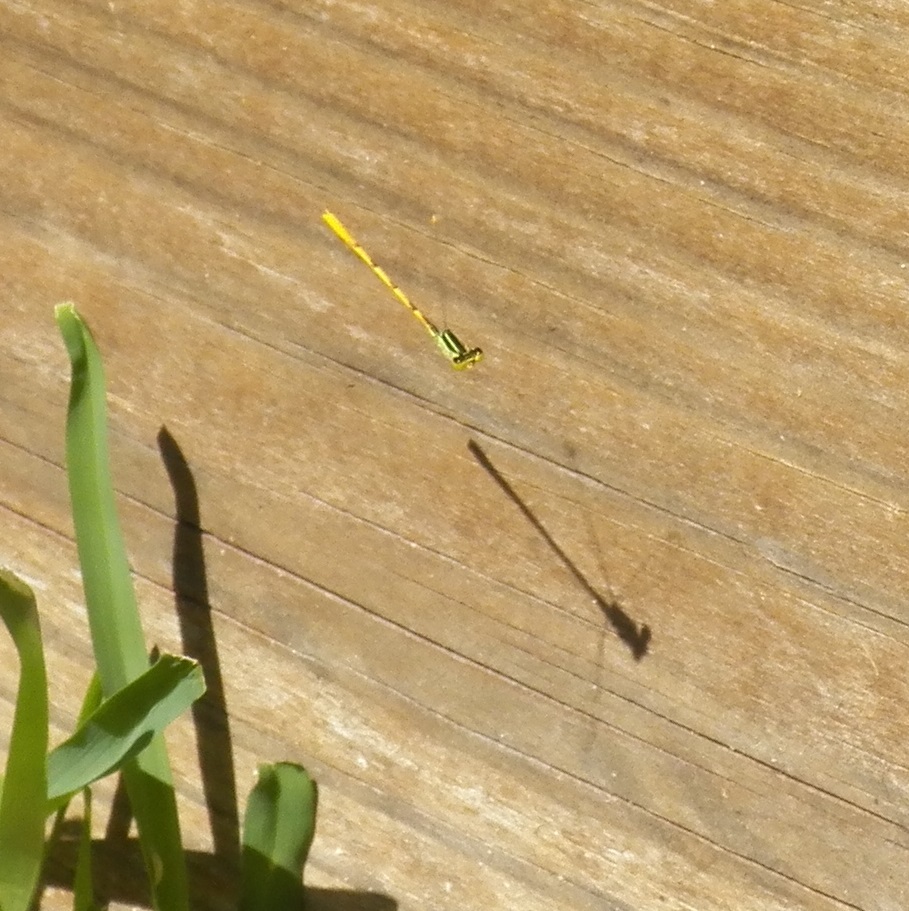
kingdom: Animalia
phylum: Arthropoda
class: Insecta
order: Odonata
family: Coenagrionidae
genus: Ischnura
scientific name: Ischnura hastata
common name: Citrine forktail
